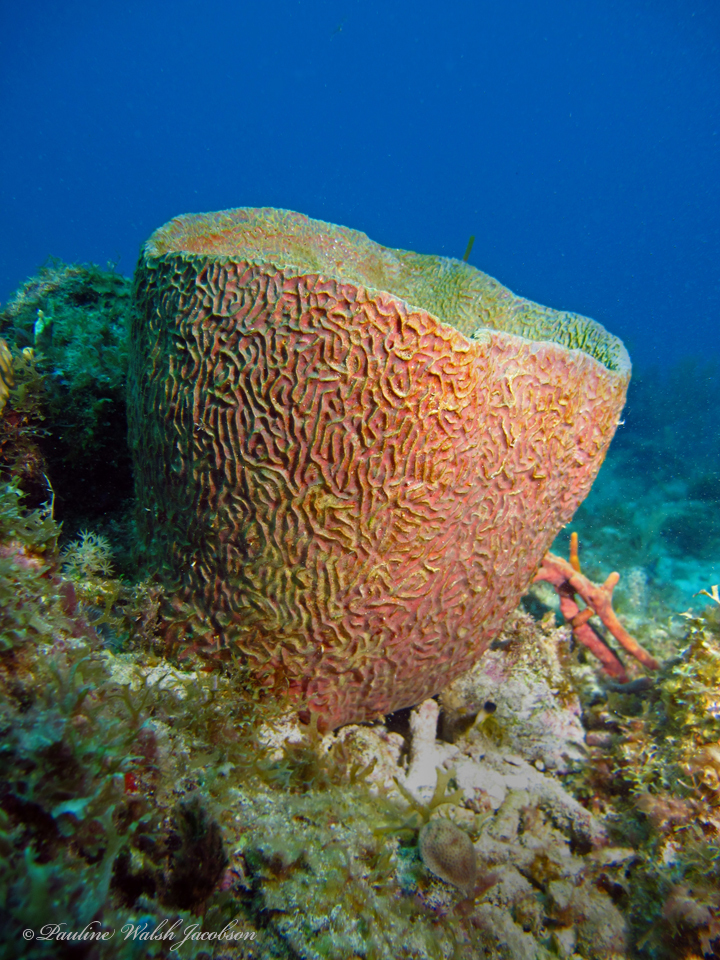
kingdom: Animalia
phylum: Porifera
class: Demospongiae
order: Verongiida
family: Aplysinidae
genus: Verongula
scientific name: Verongula gigantea
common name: Netted barrel sponge
